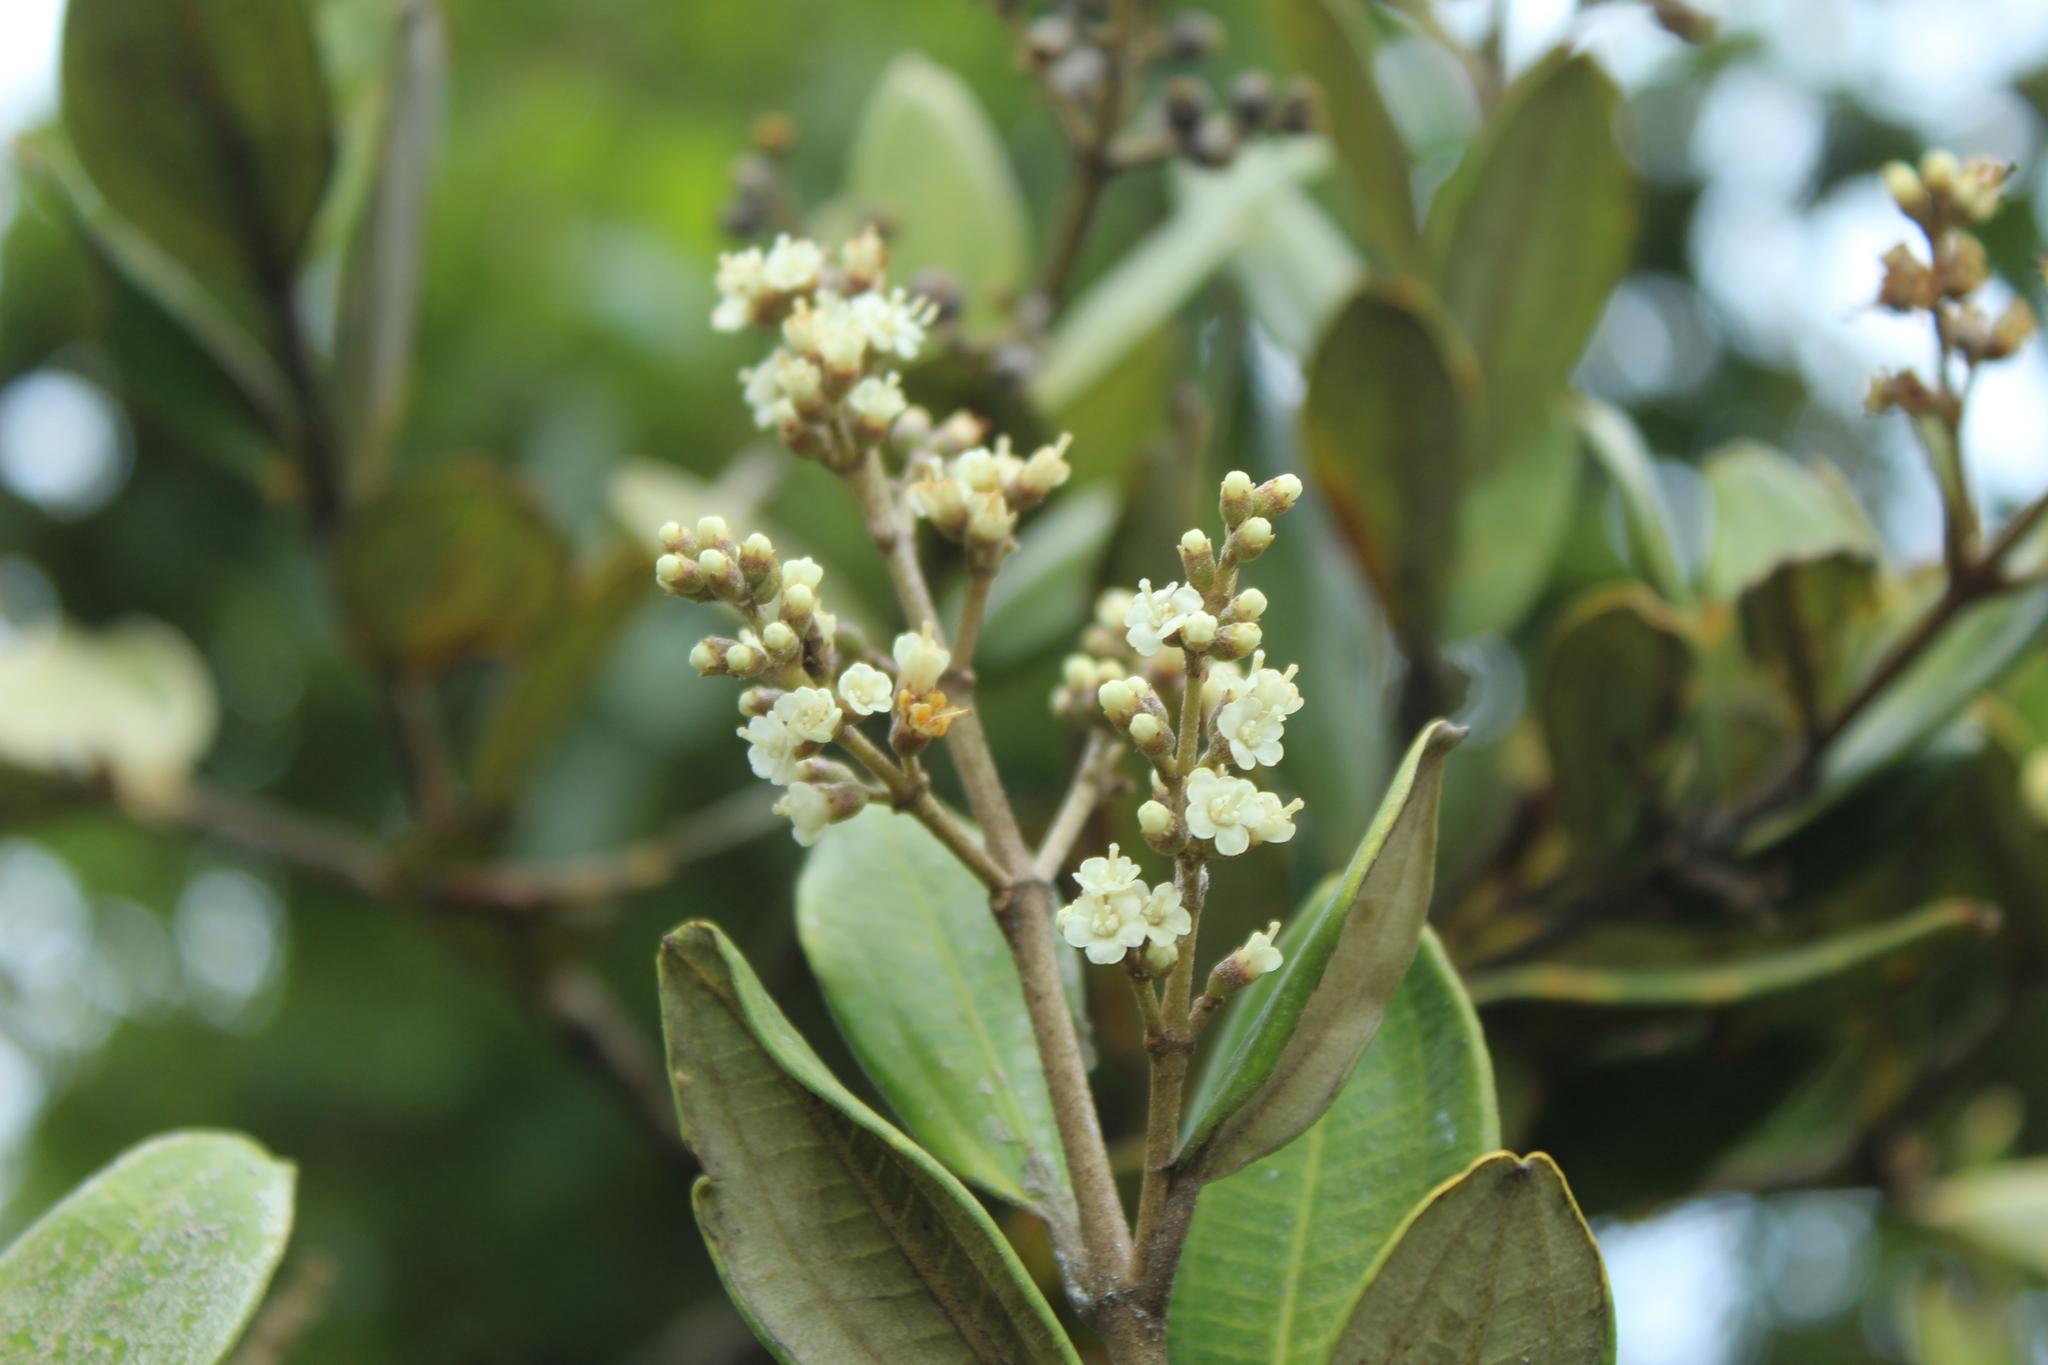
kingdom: Plantae
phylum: Tracheophyta
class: Magnoliopsida
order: Myrtales
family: Melastomataceae
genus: Miconia
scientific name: Miconia squamulosa
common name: Squamulose maya
